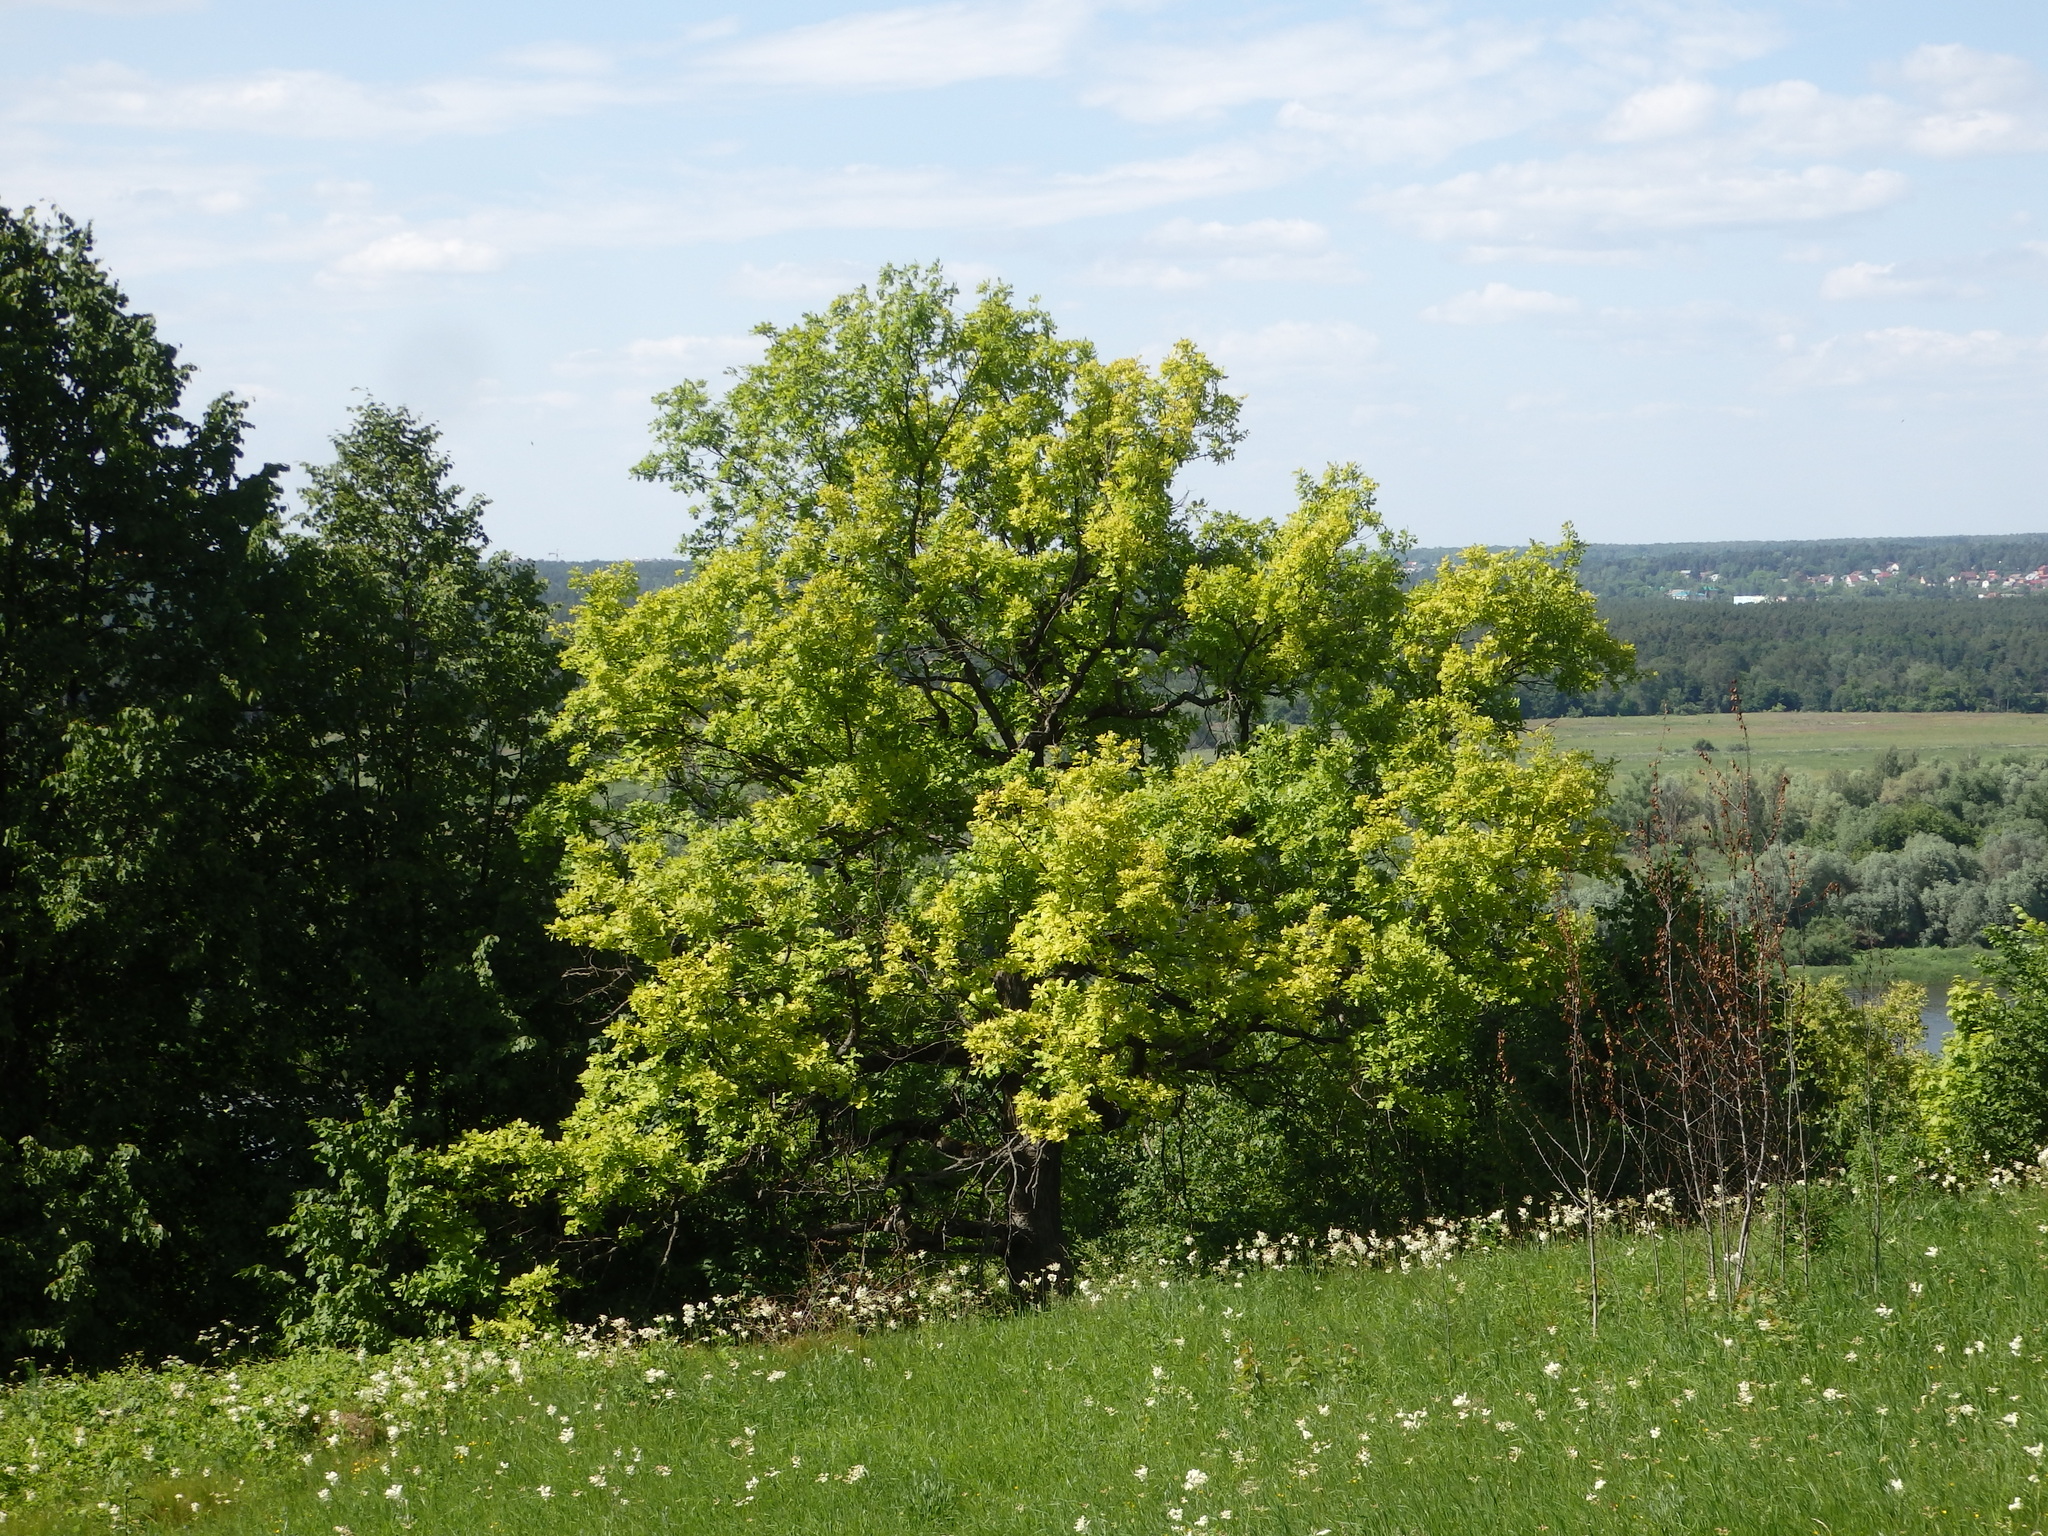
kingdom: Plantae
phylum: Tracheophyta
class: Magnoliopsida
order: Fagales
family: Fagaceae
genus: Quercus
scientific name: Quercus robur
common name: Pedunculate oak
